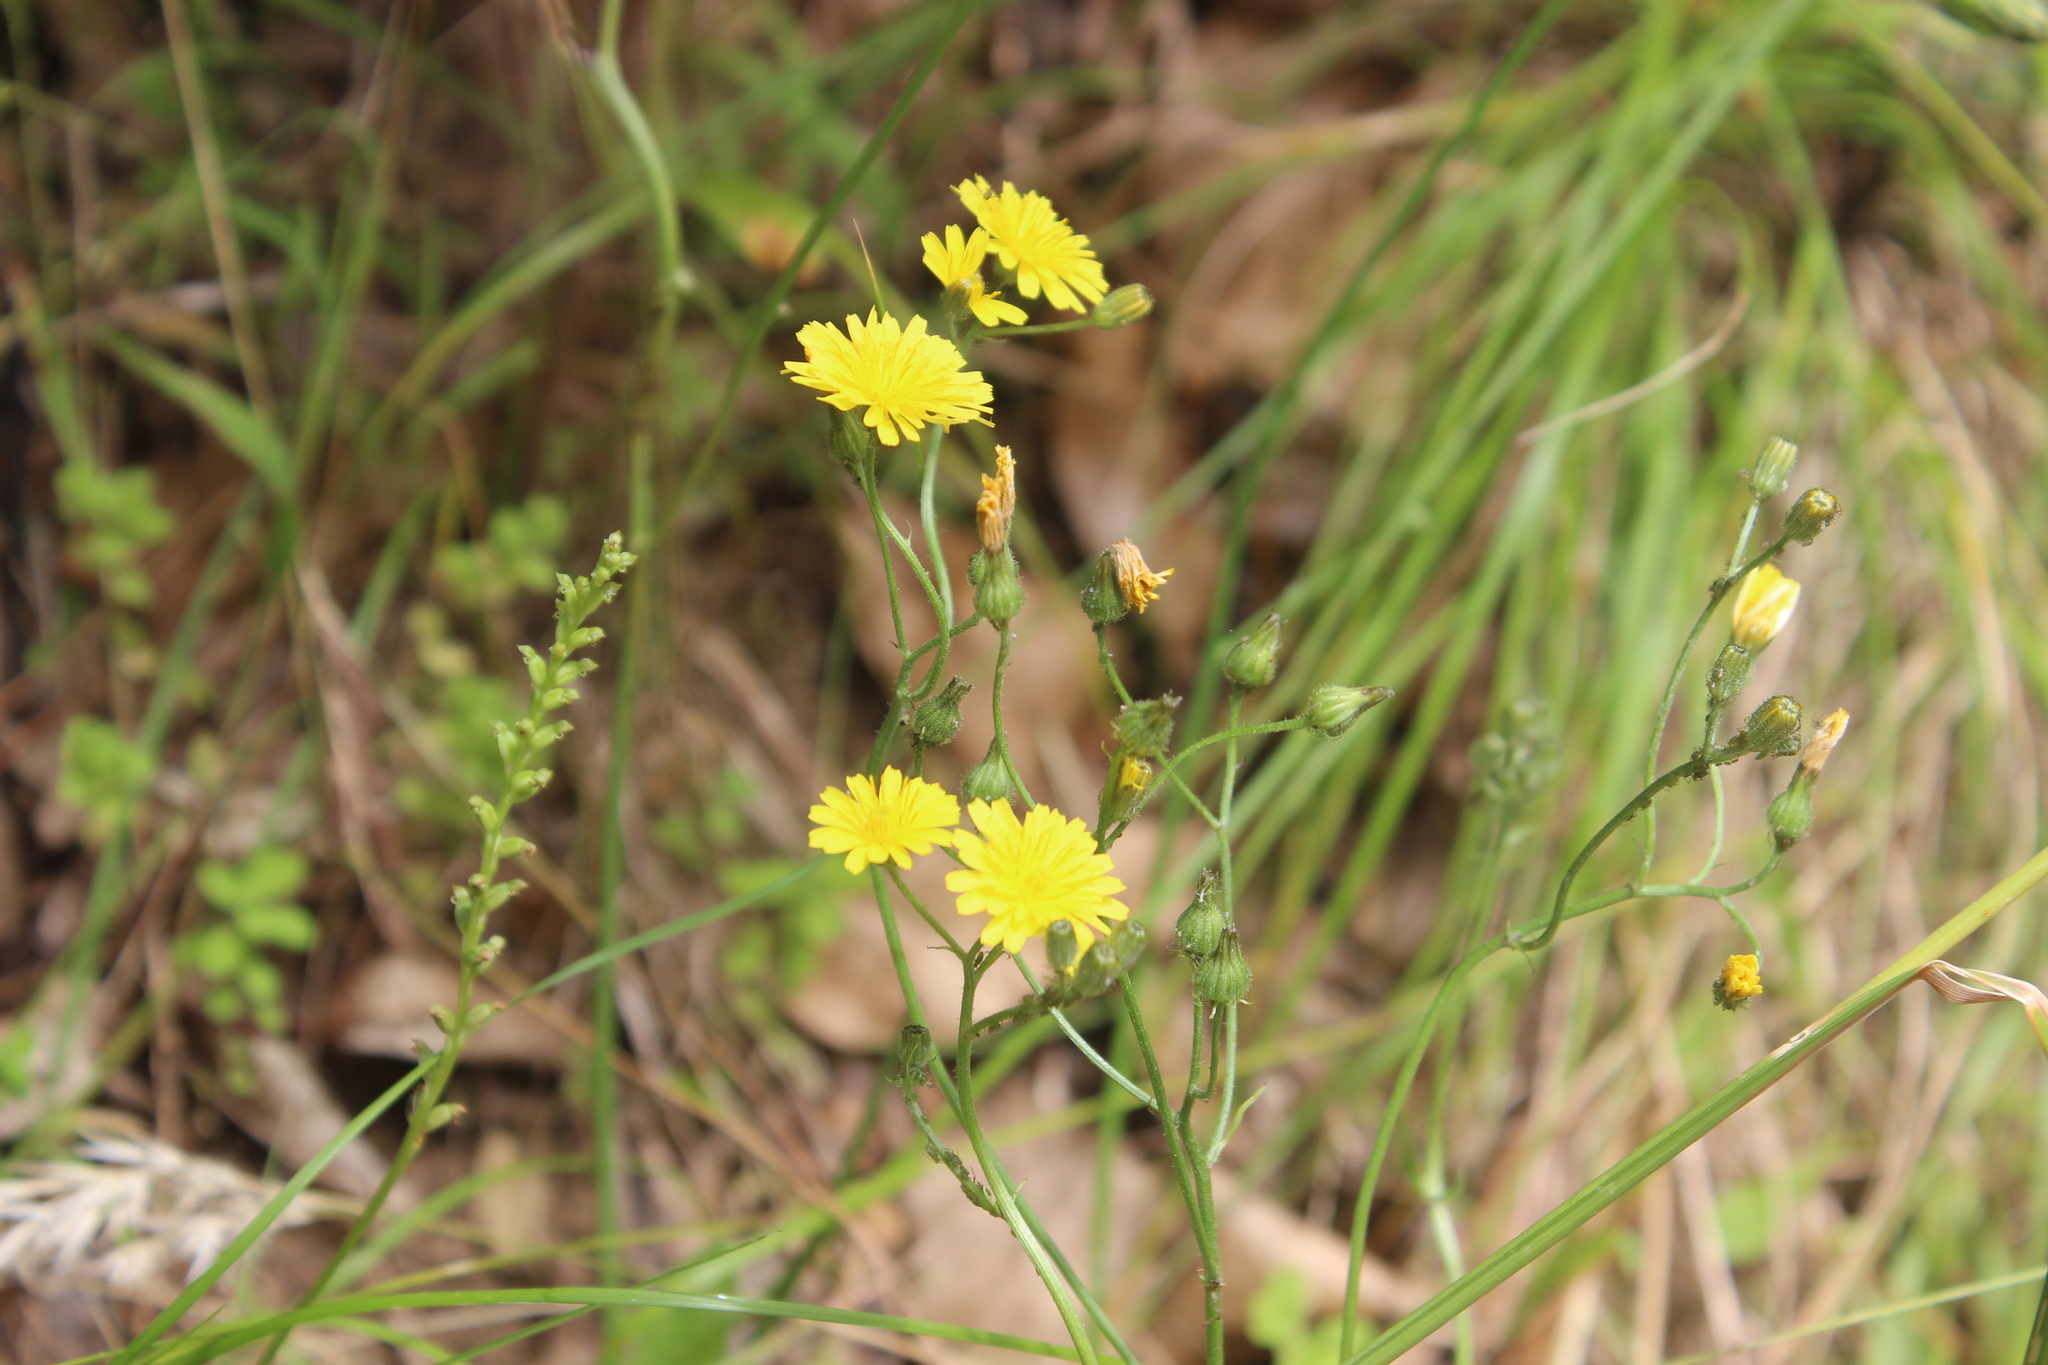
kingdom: Plantae
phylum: Tracheophyta
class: Magnoliopsida
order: Asterales
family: Asteraceae
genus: Crepis
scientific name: Crepis capillaris
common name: Smooth hawksbeard
